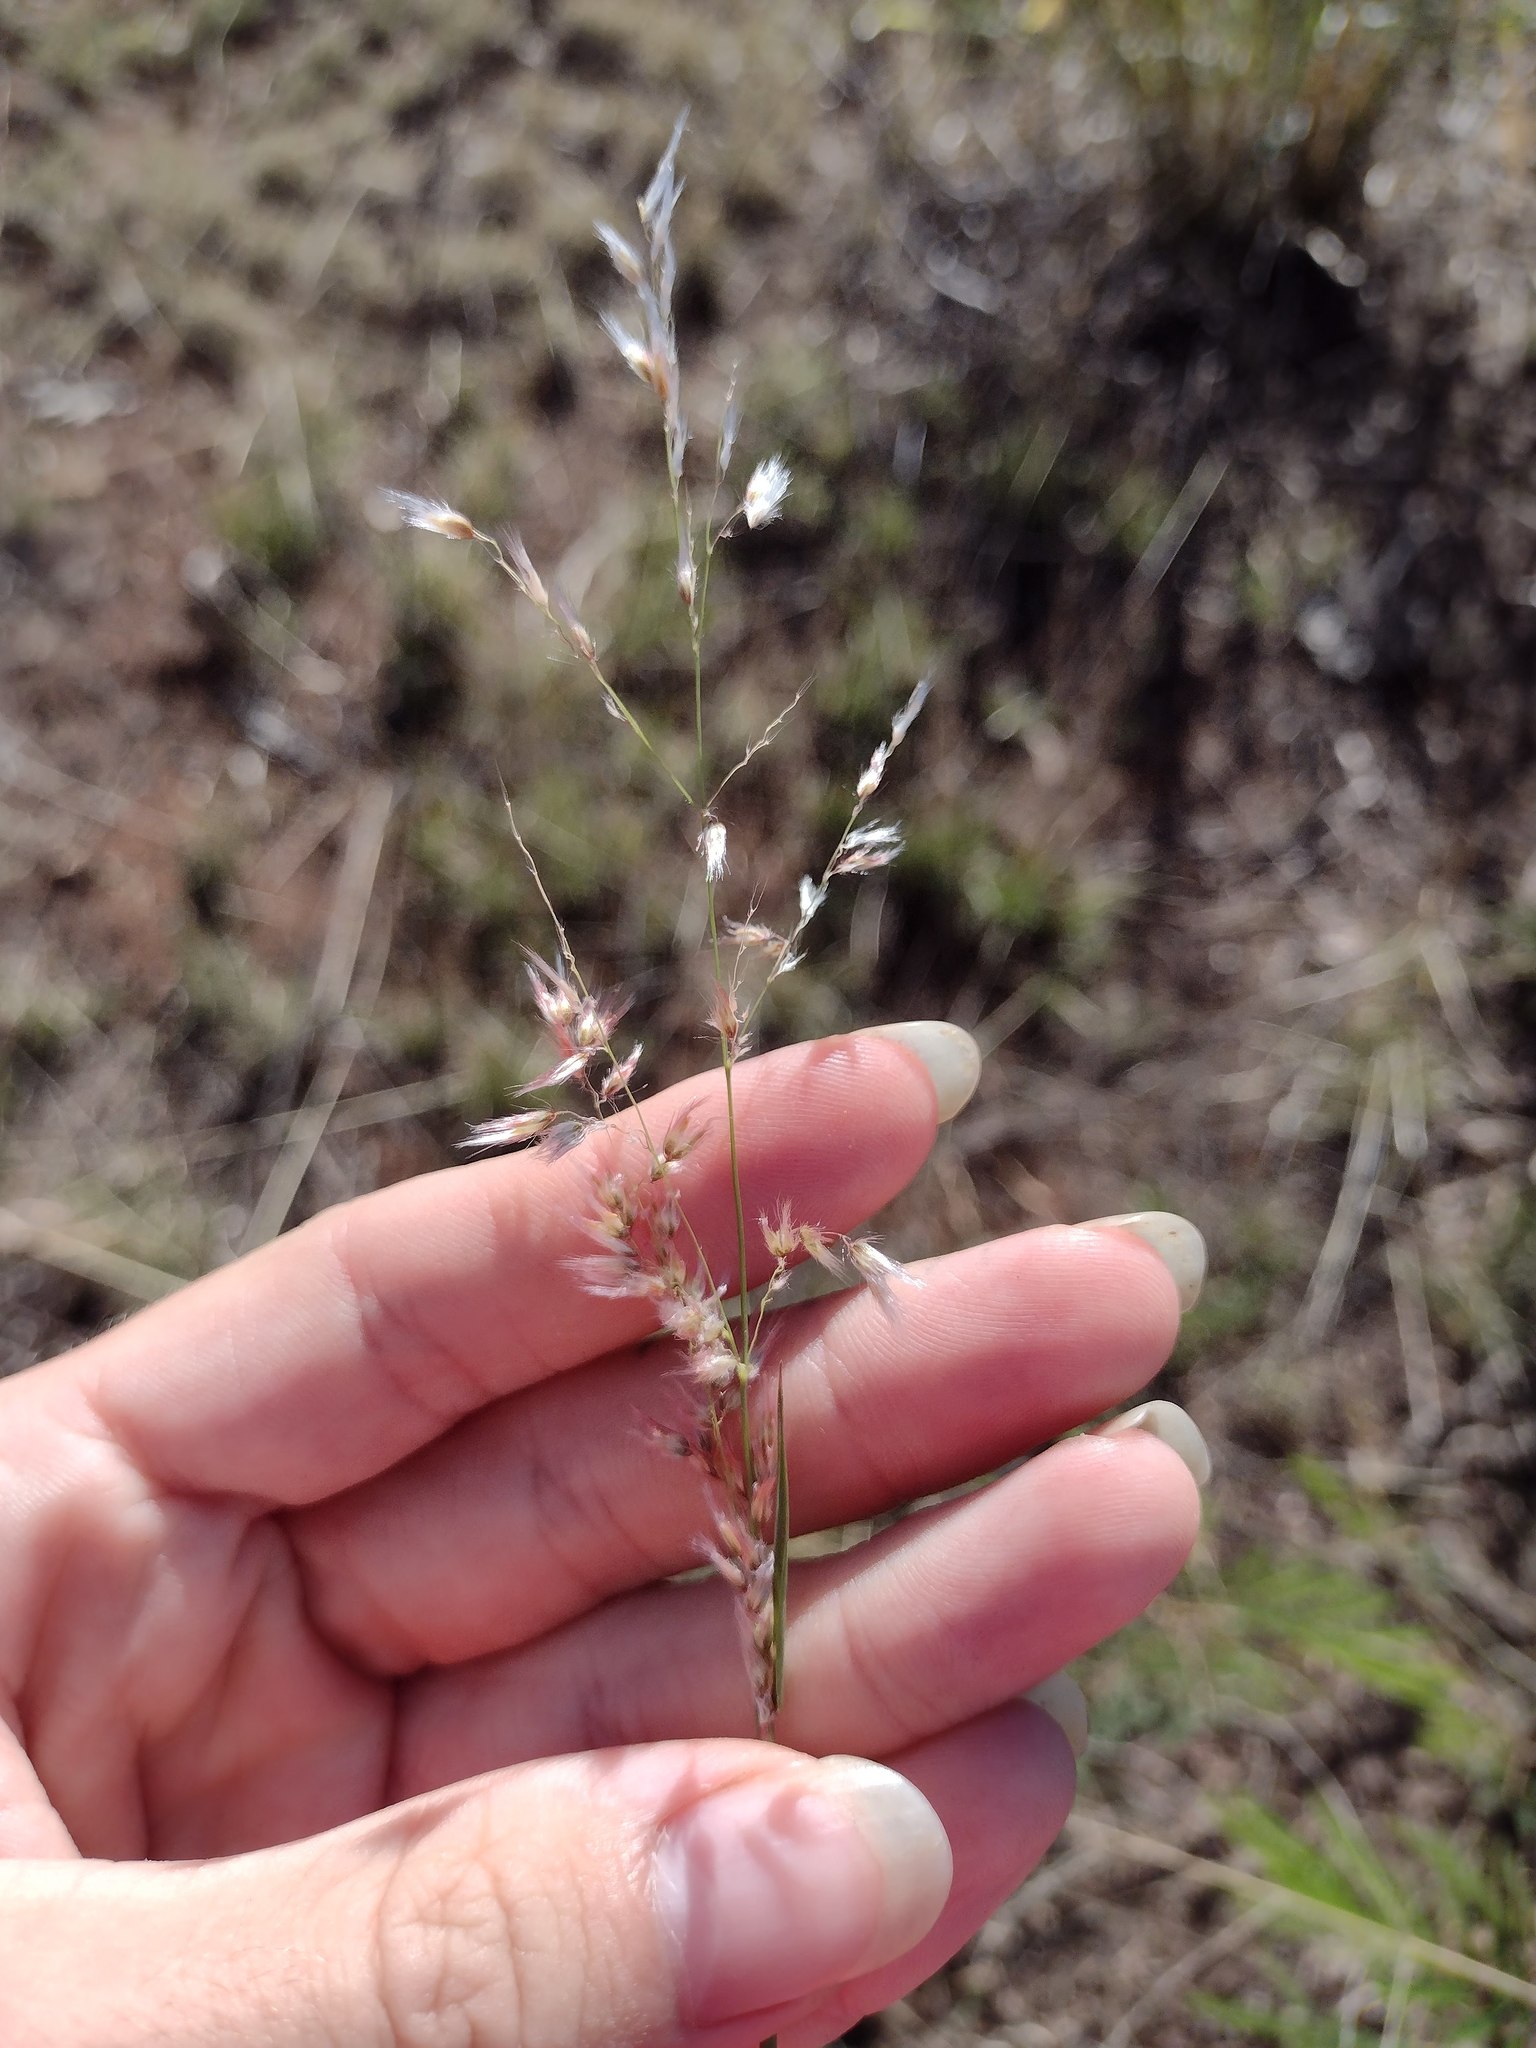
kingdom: Plantae
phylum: Tracheophyta
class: Liliopsida
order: Poales
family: Poaceae
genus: Melinis
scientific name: Melinis repens
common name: Rose natal grass
